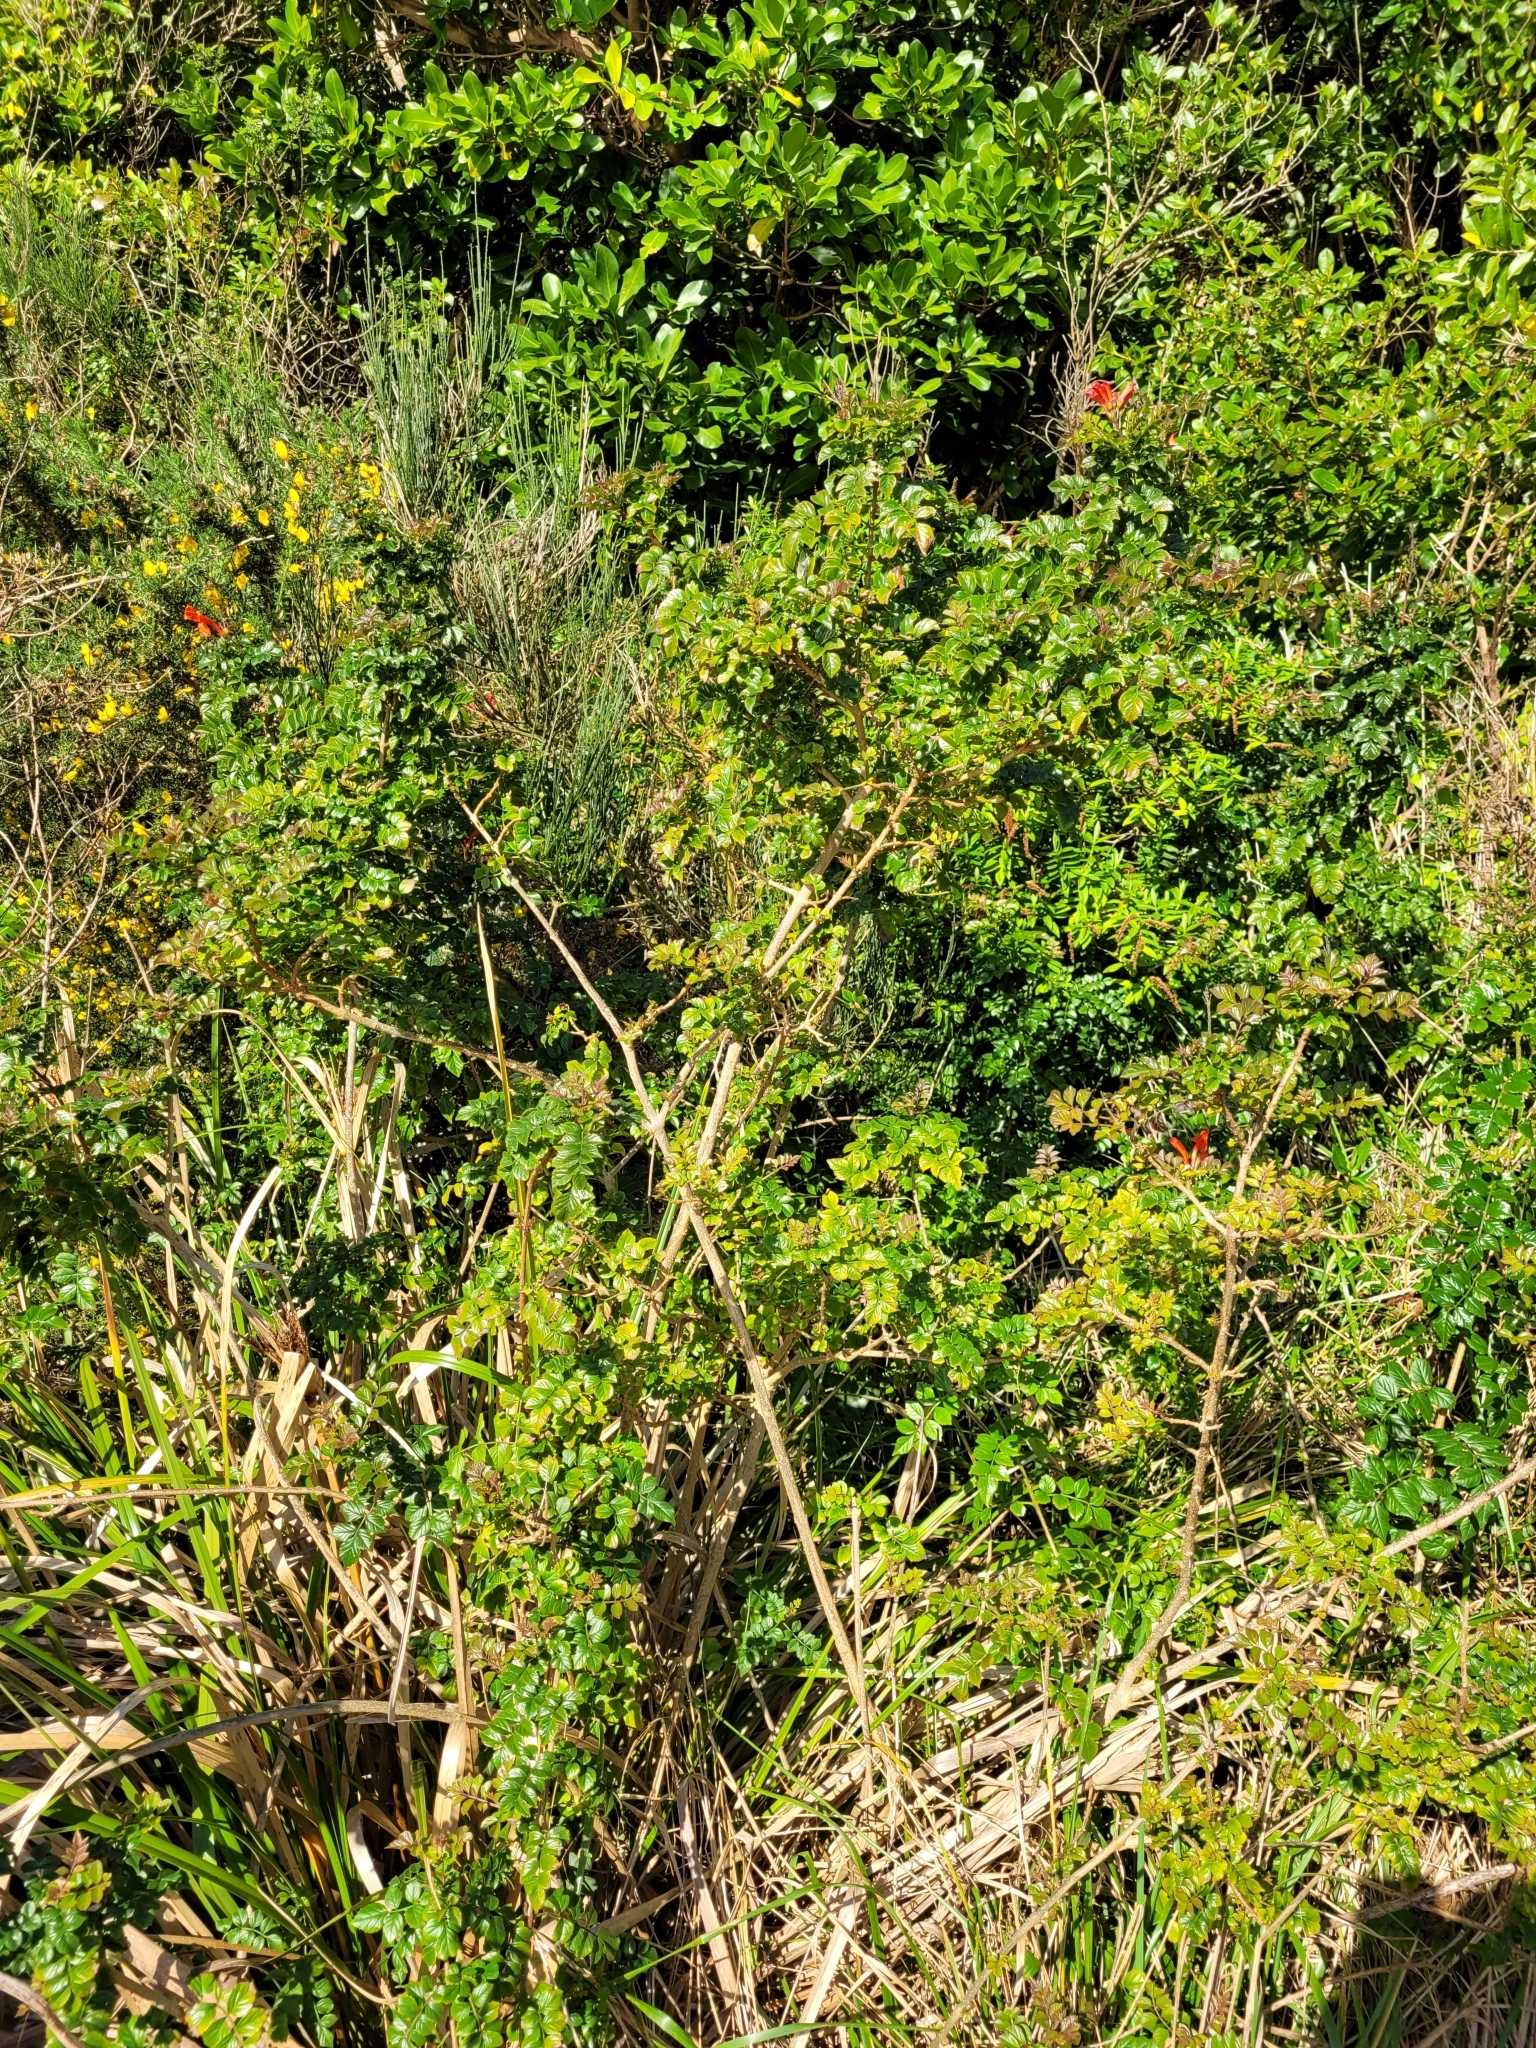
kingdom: Plantae
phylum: Tracheophyta
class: Magnoliopsida
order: Lamiales
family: Bignoniaceae
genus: Tecomaria
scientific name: Tecomaria capensis
